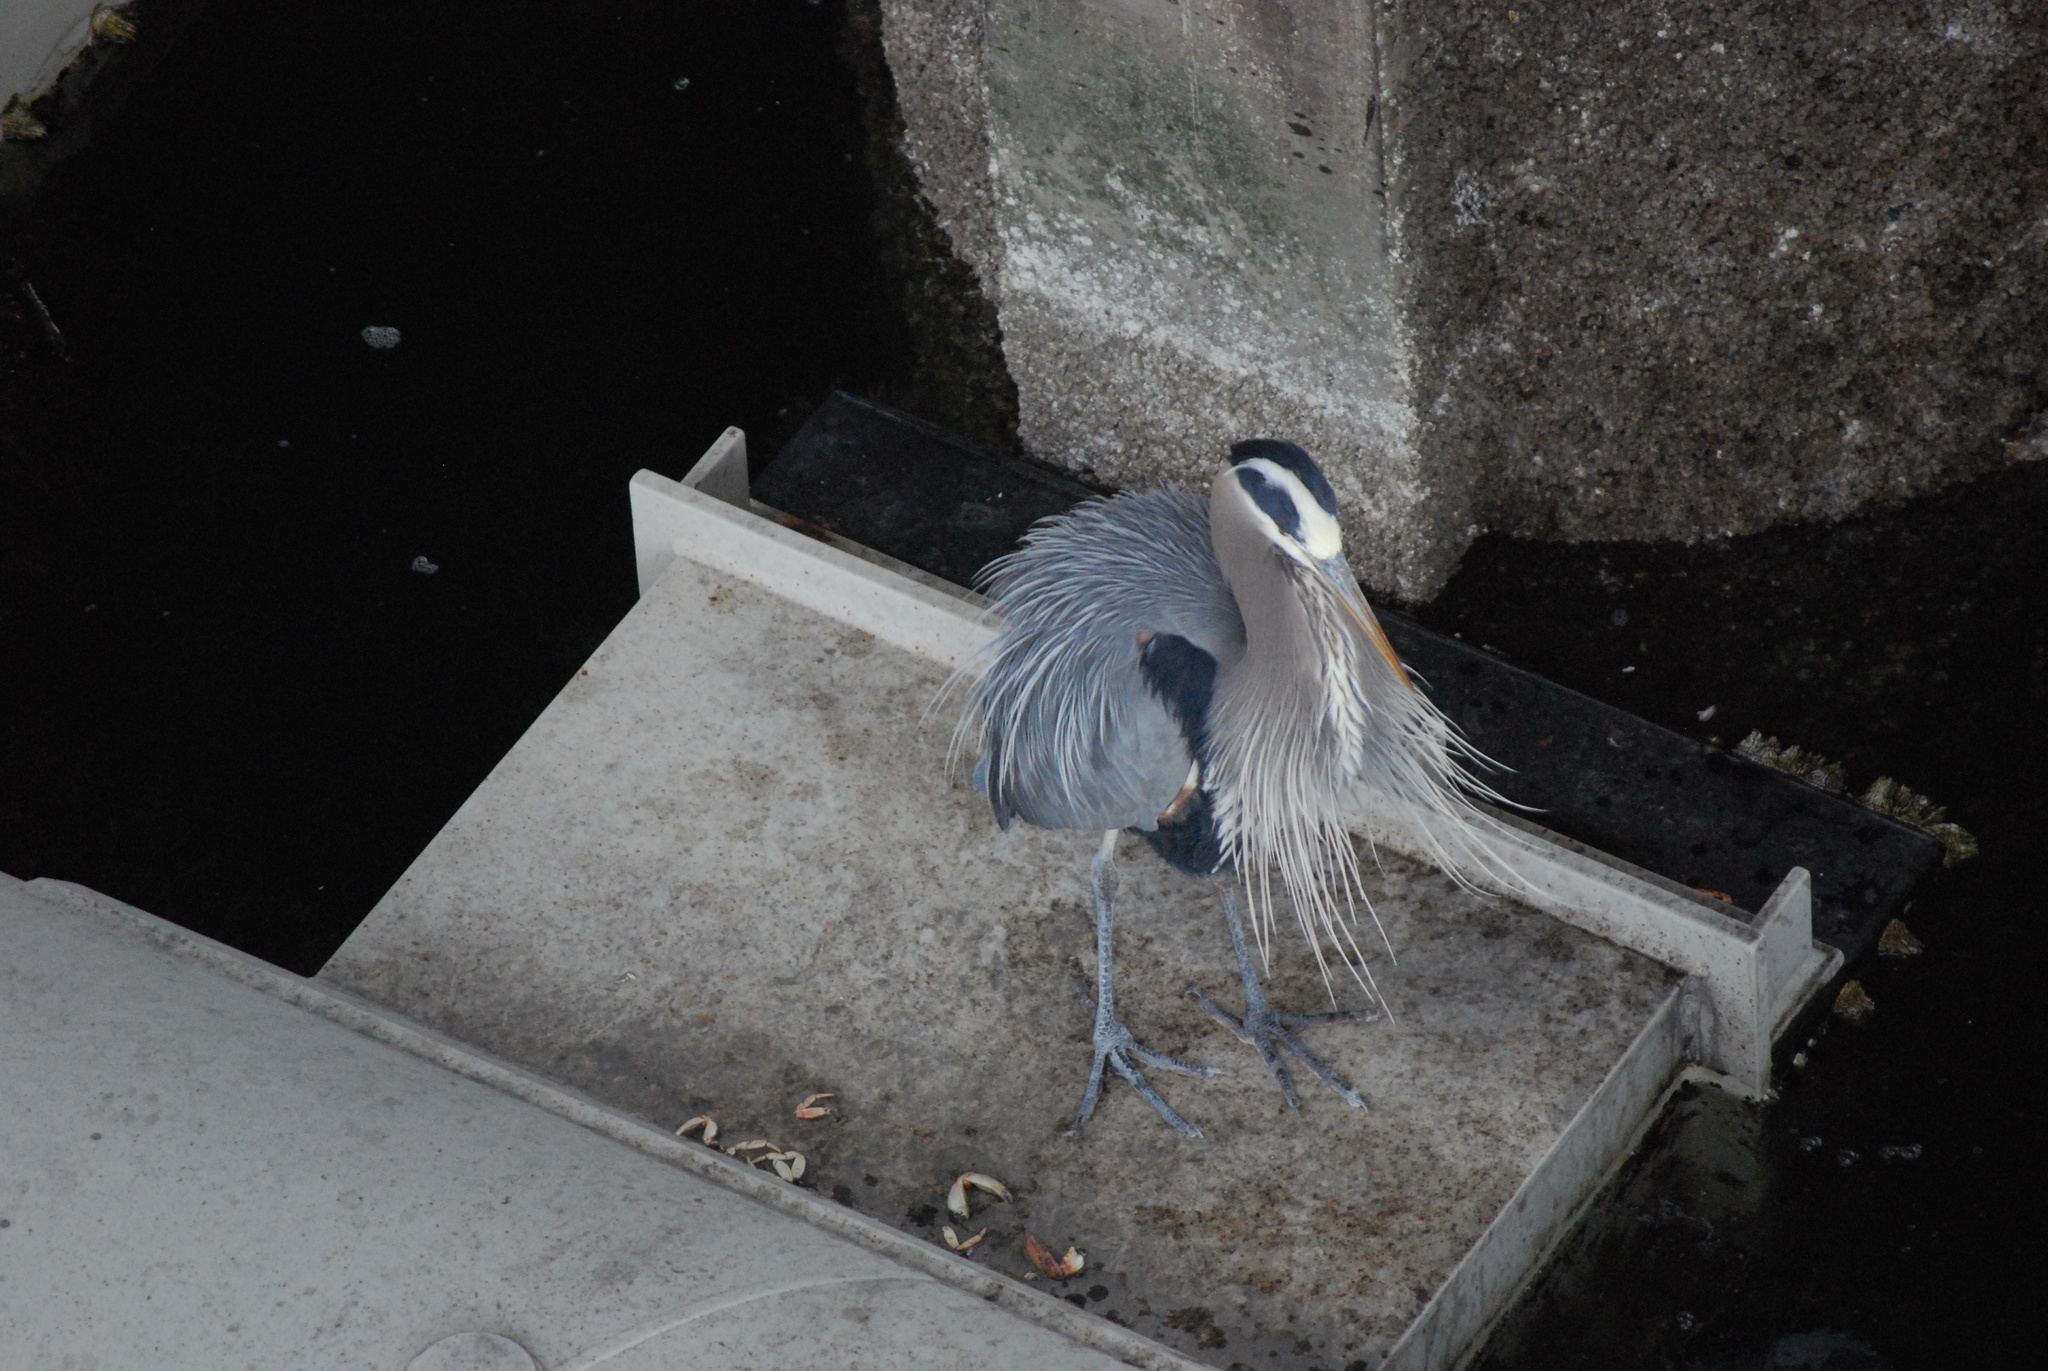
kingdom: Animalia
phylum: Chordata
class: Aves
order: Pelecaniformes
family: Ardeidae
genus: Ardea
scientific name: Ardea herodias
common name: Great blue heron
